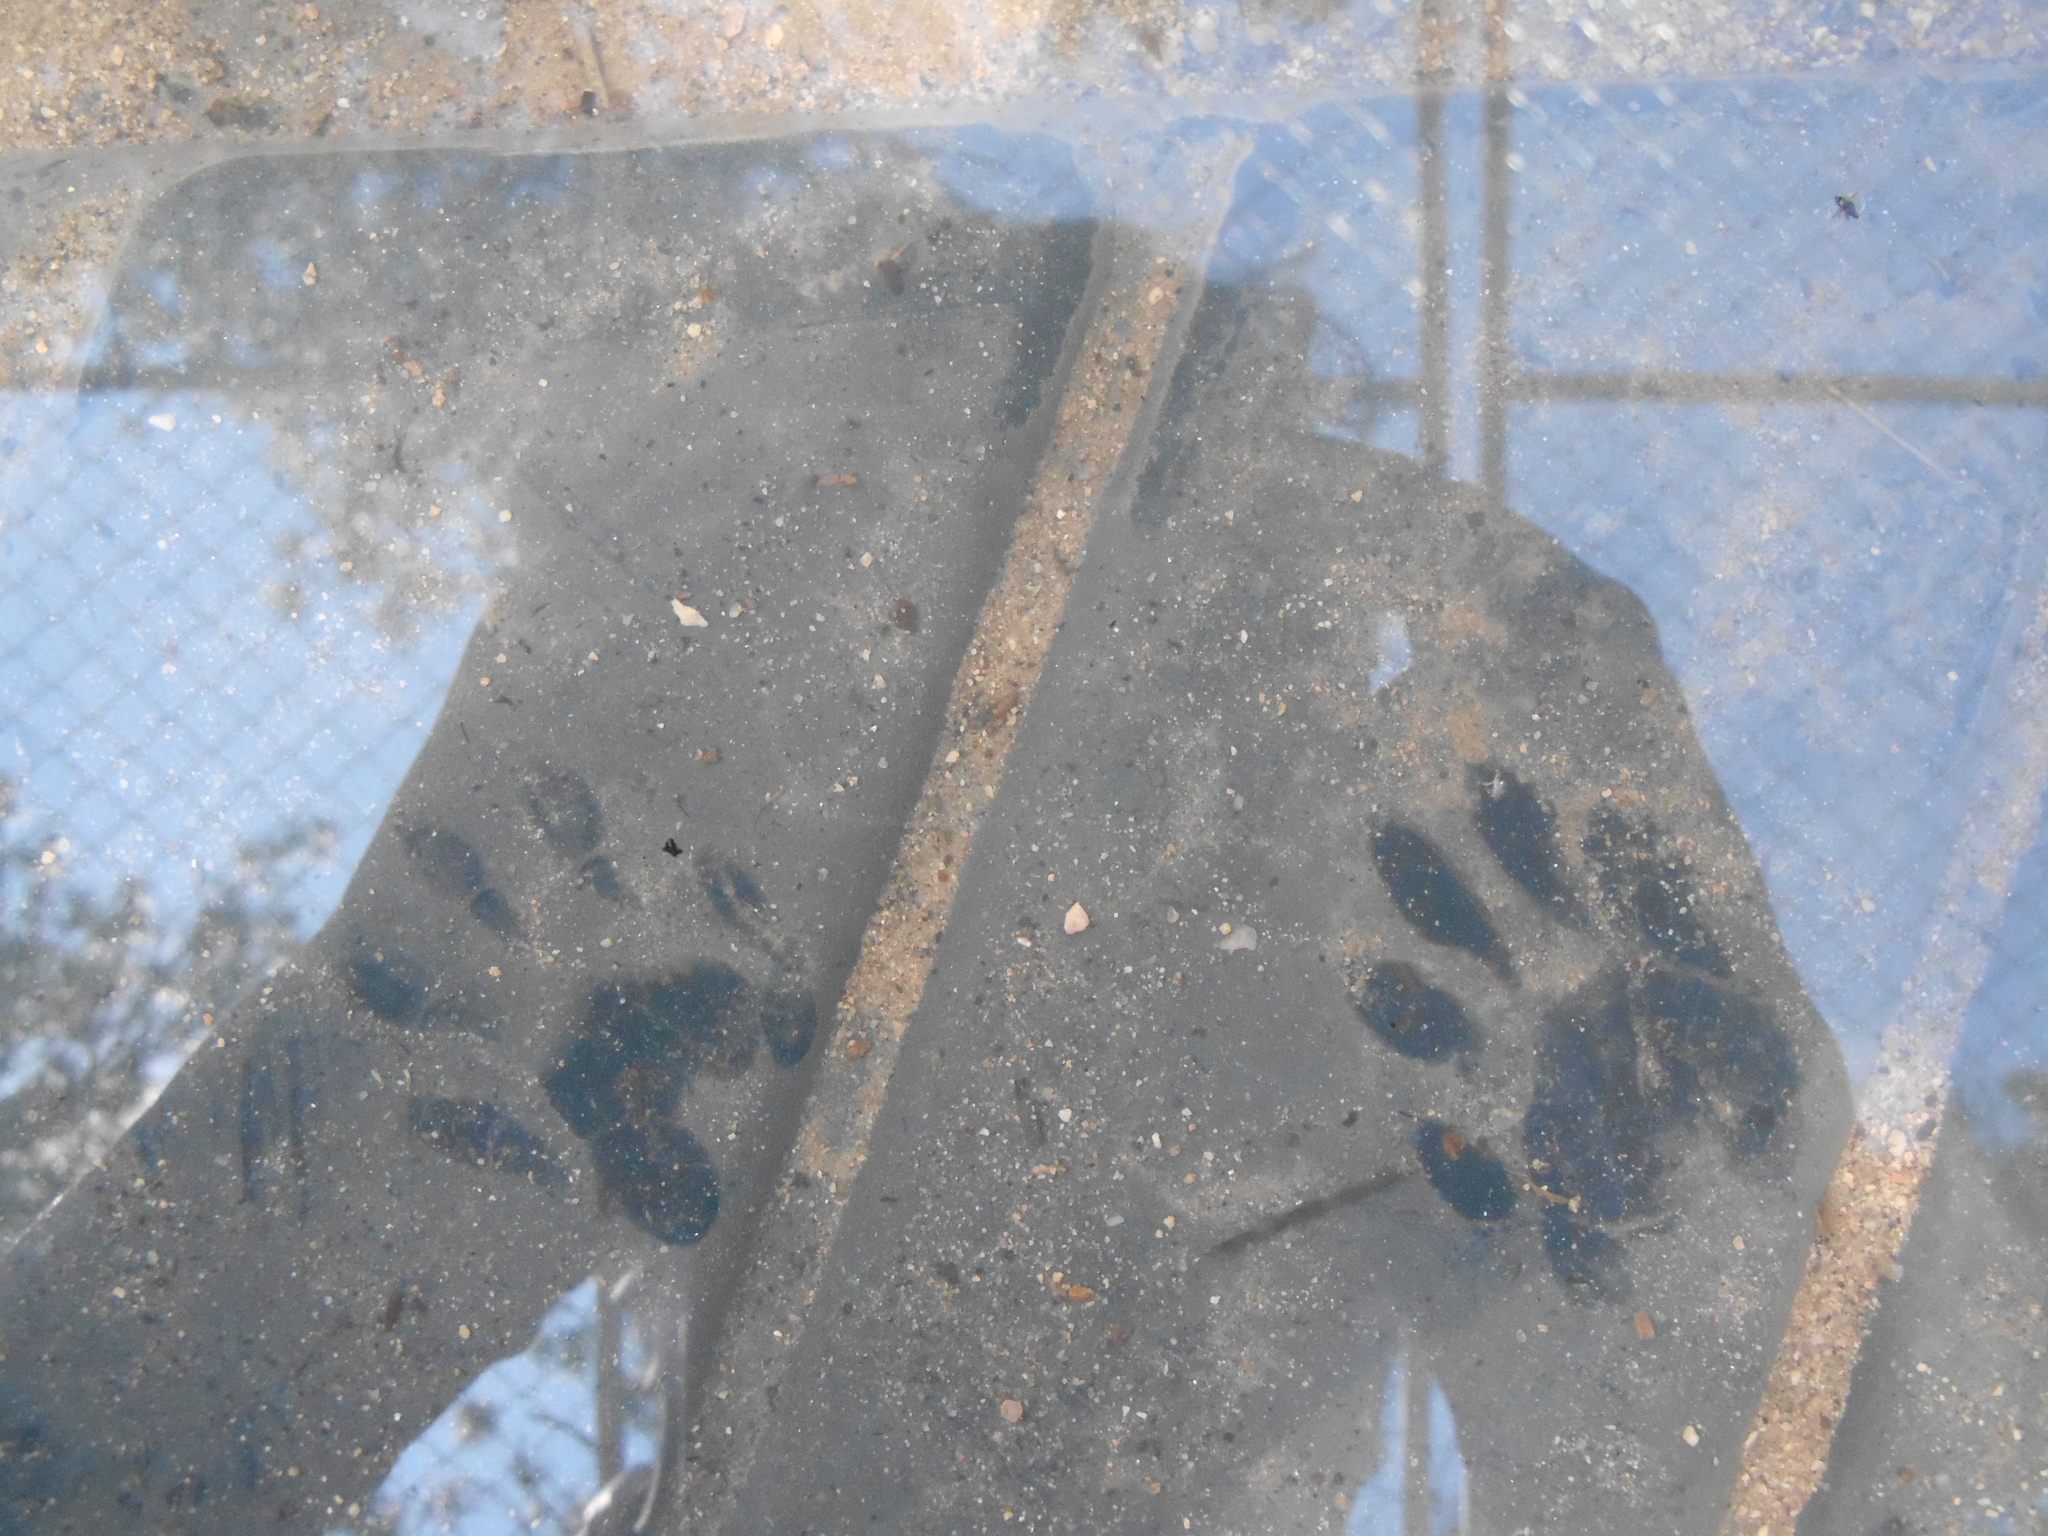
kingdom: Animalia
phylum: Chordata
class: Mammalia
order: Carnivora
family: Procyonidae
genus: Procyon
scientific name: Procyon lotor
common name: Raccoon
